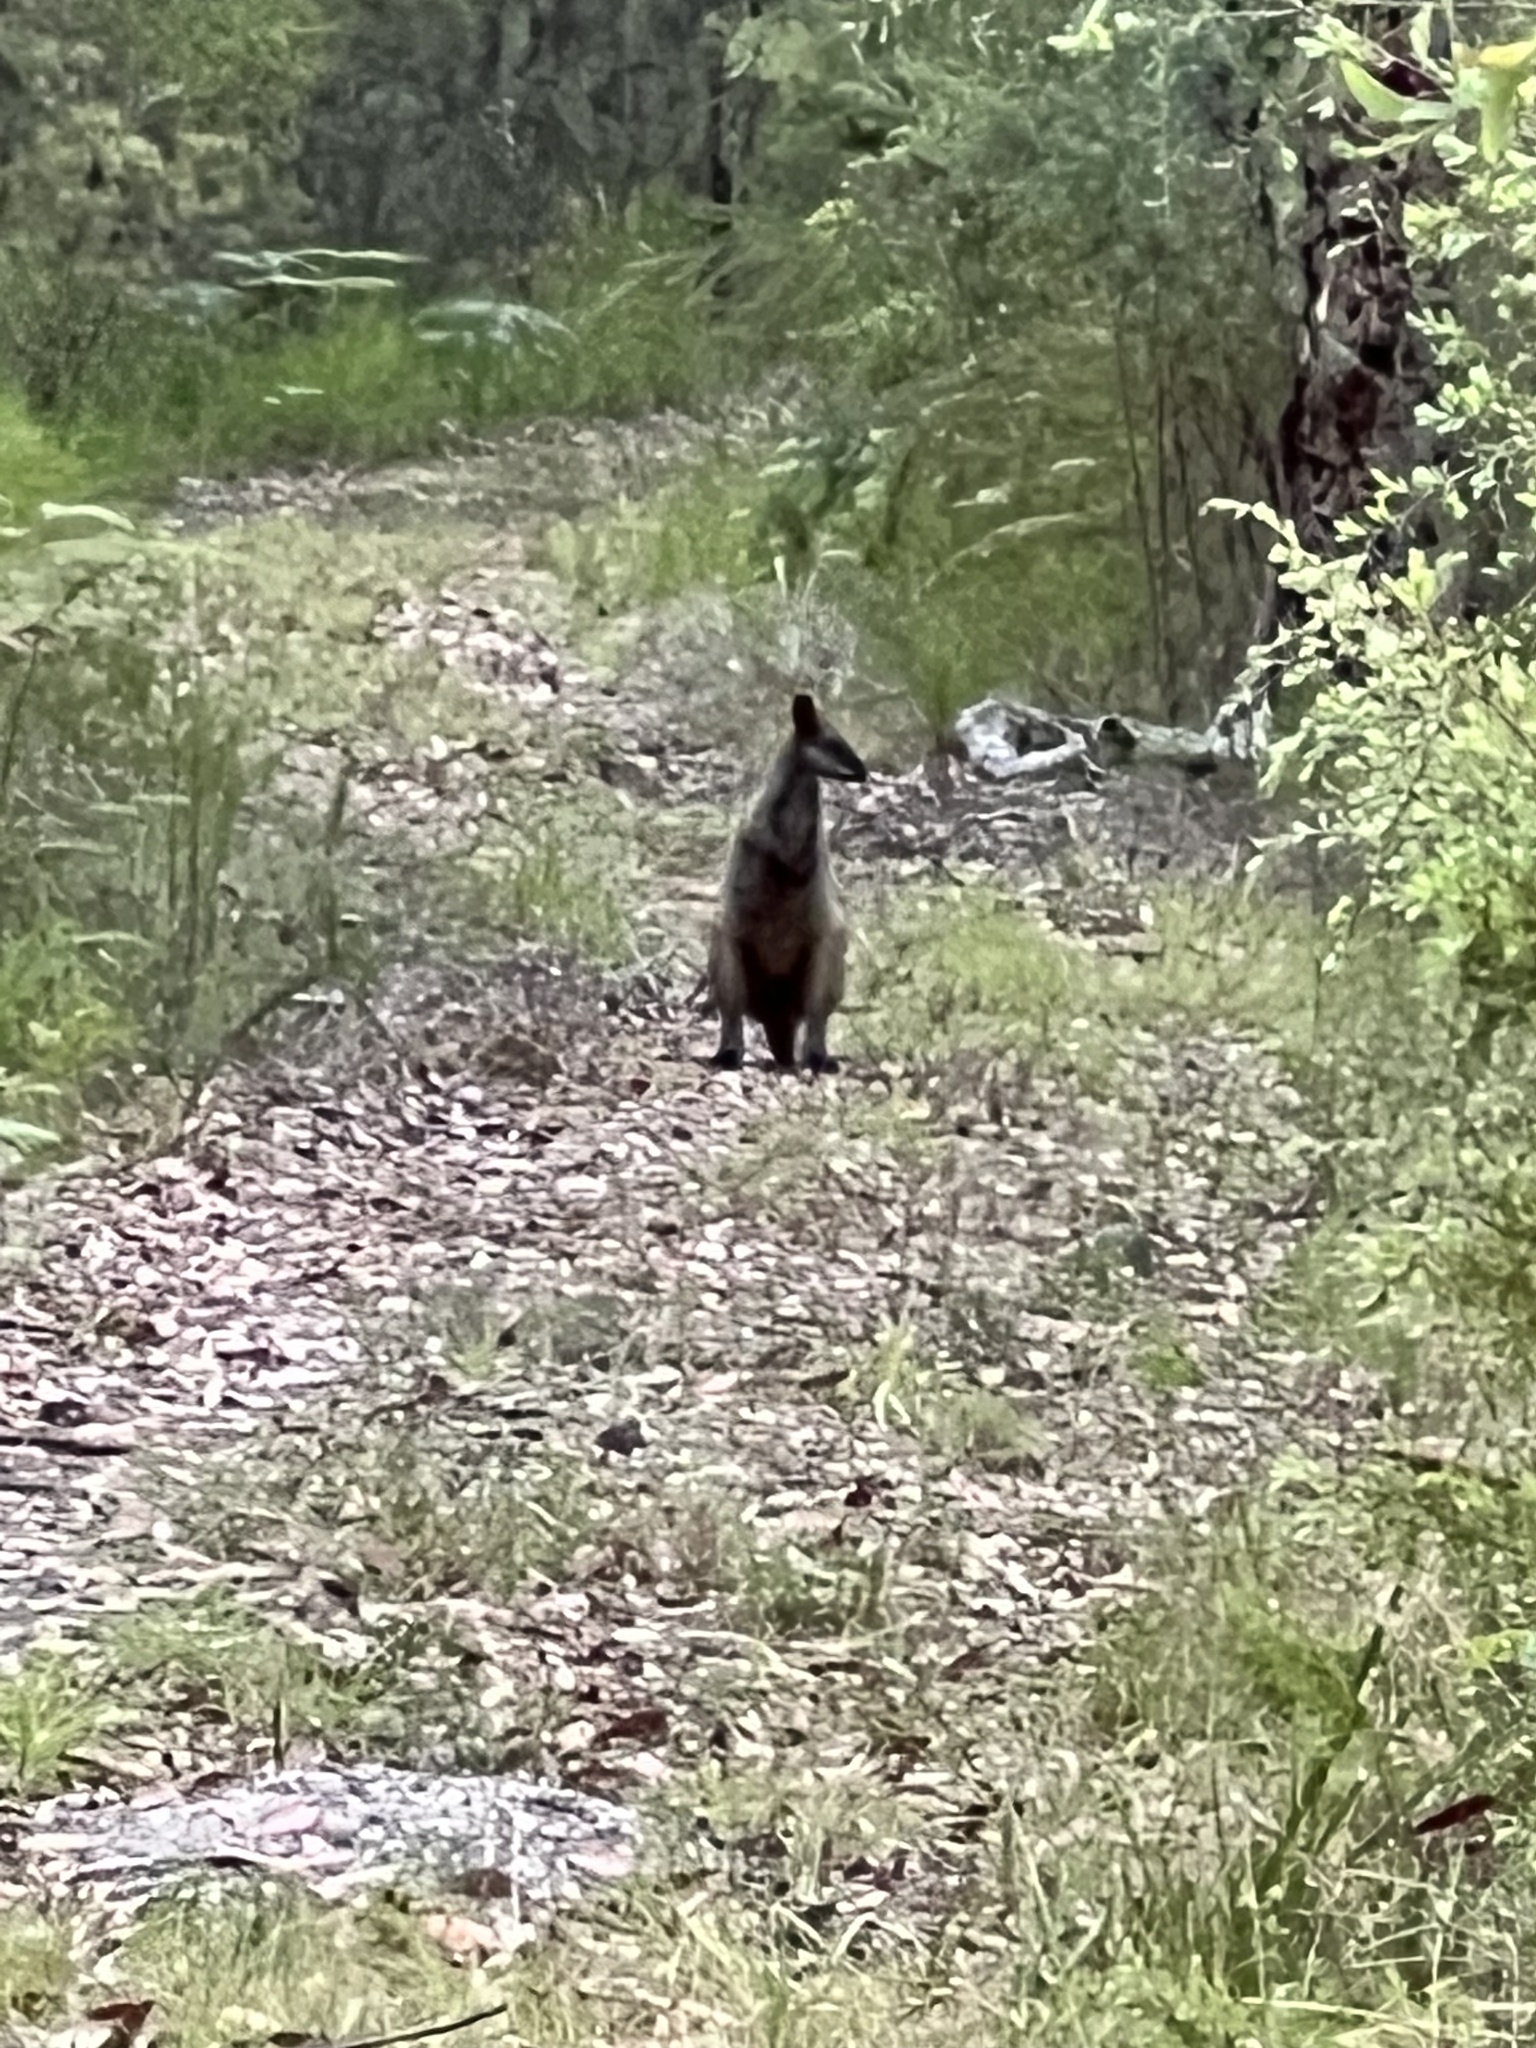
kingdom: Animalia
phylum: Chordata
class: Mammalia
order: Diprotodontia
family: Macropodidae
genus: Wallabia
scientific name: Wallabia bicolor
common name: Swamp wallaby
